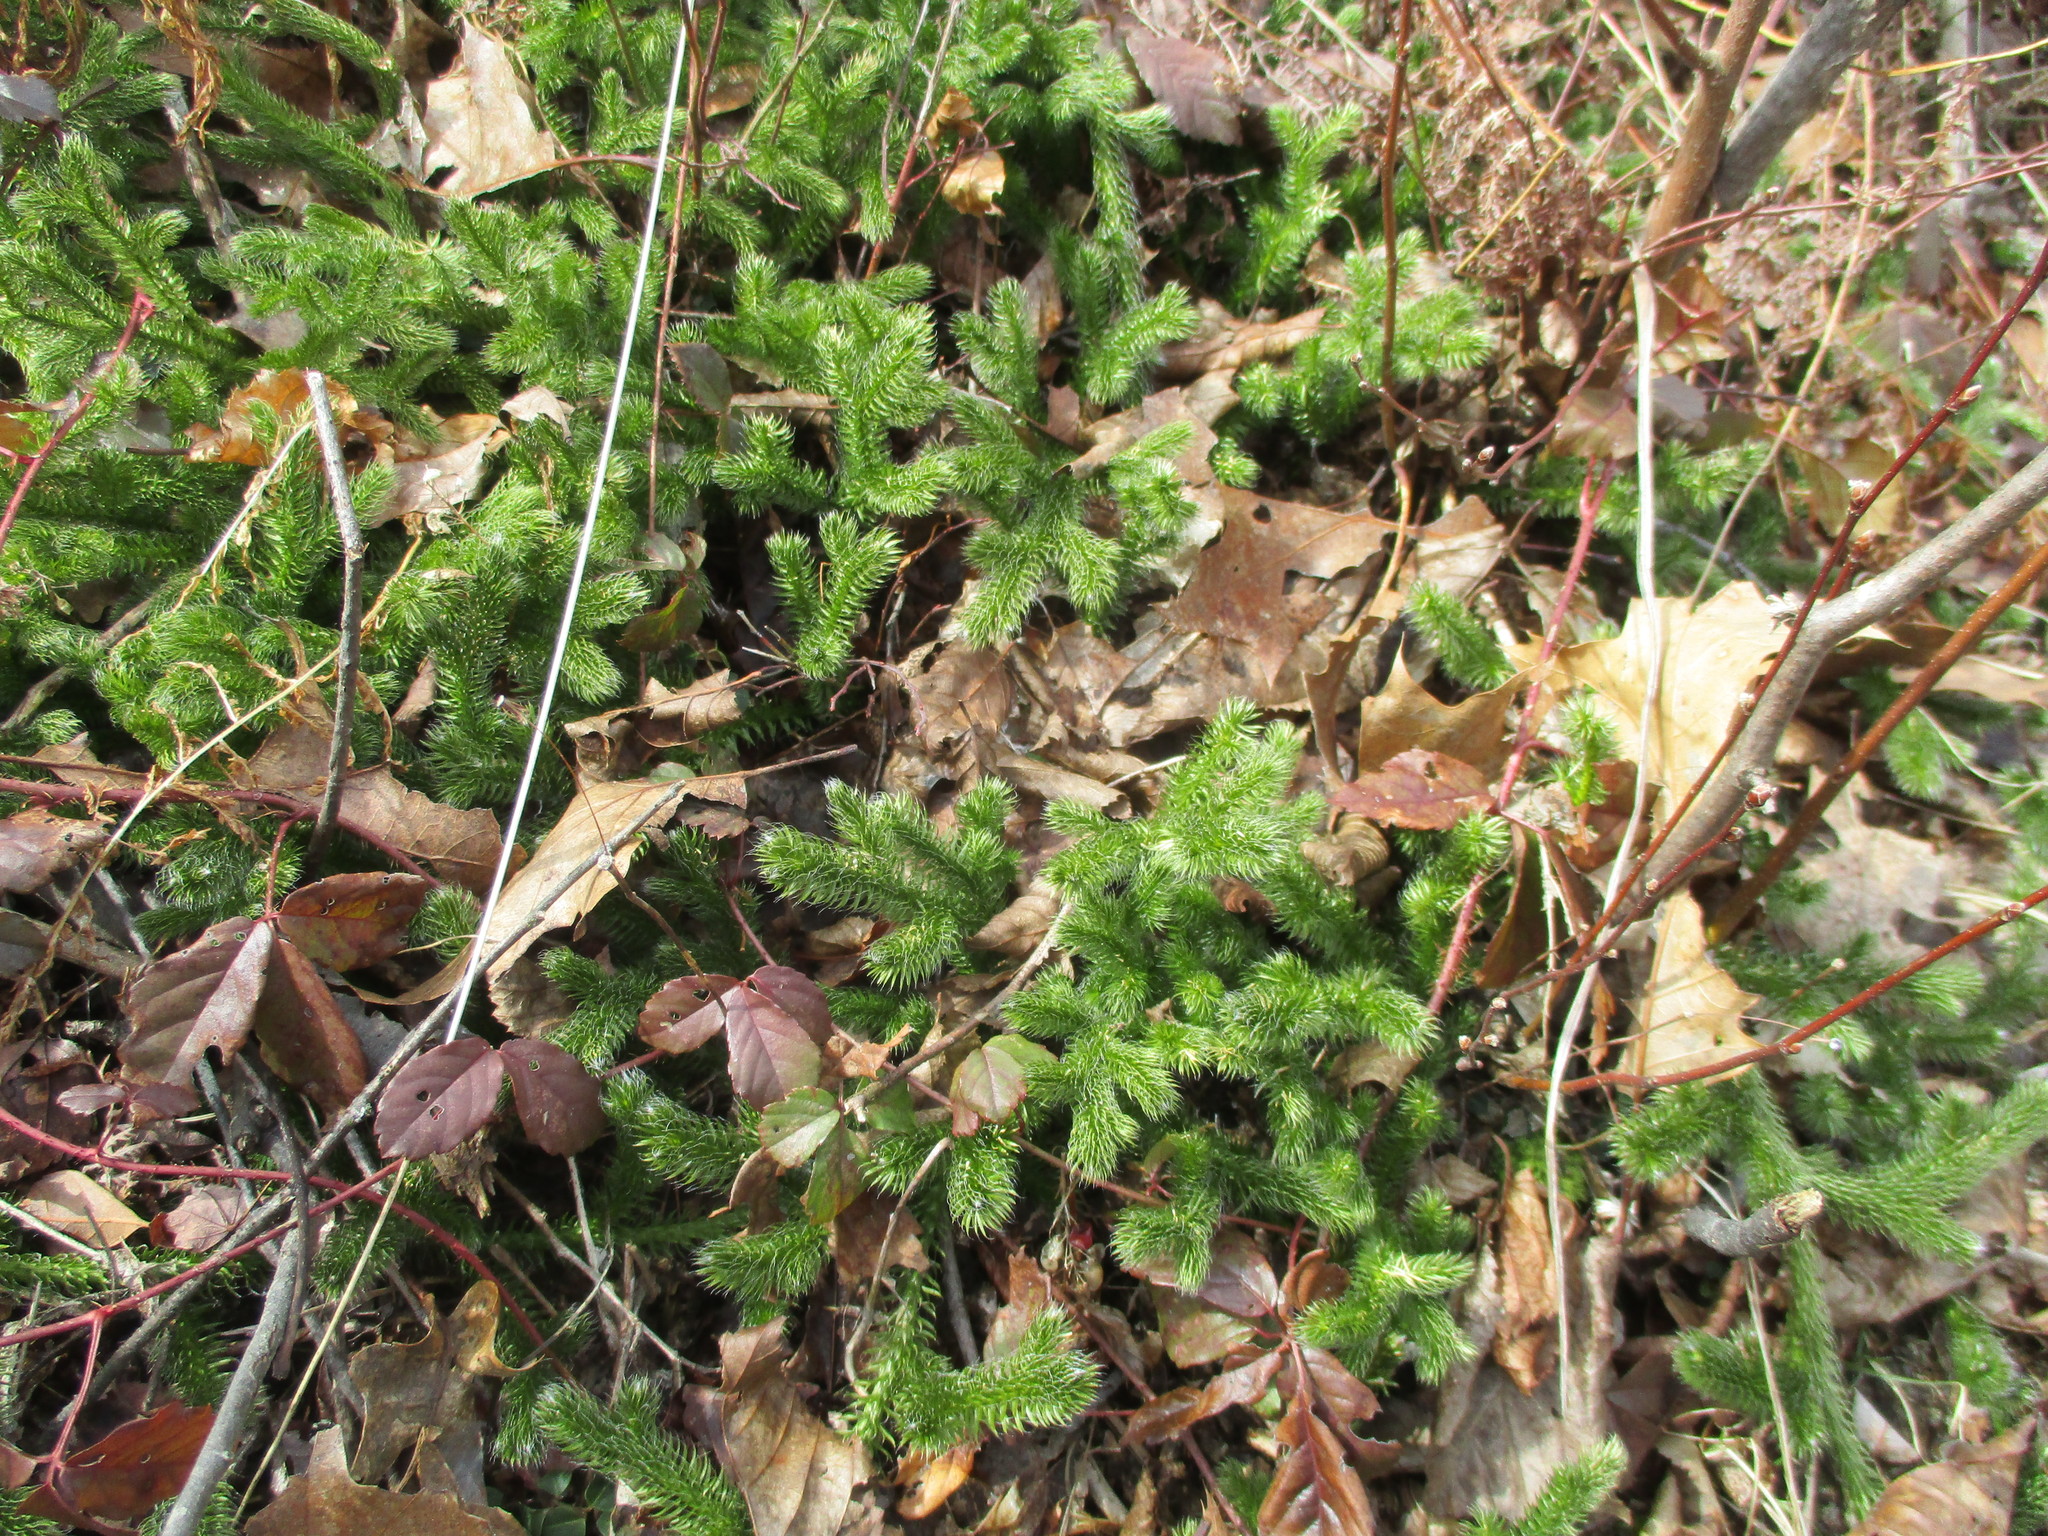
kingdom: Plantae
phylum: Tracheophyta
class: Lycopodiopsida
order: Lycopodiales
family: Lycopodiaceae
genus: Lycopodium
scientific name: Lycopodium clavatum
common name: Stag's-horn clubmoss
